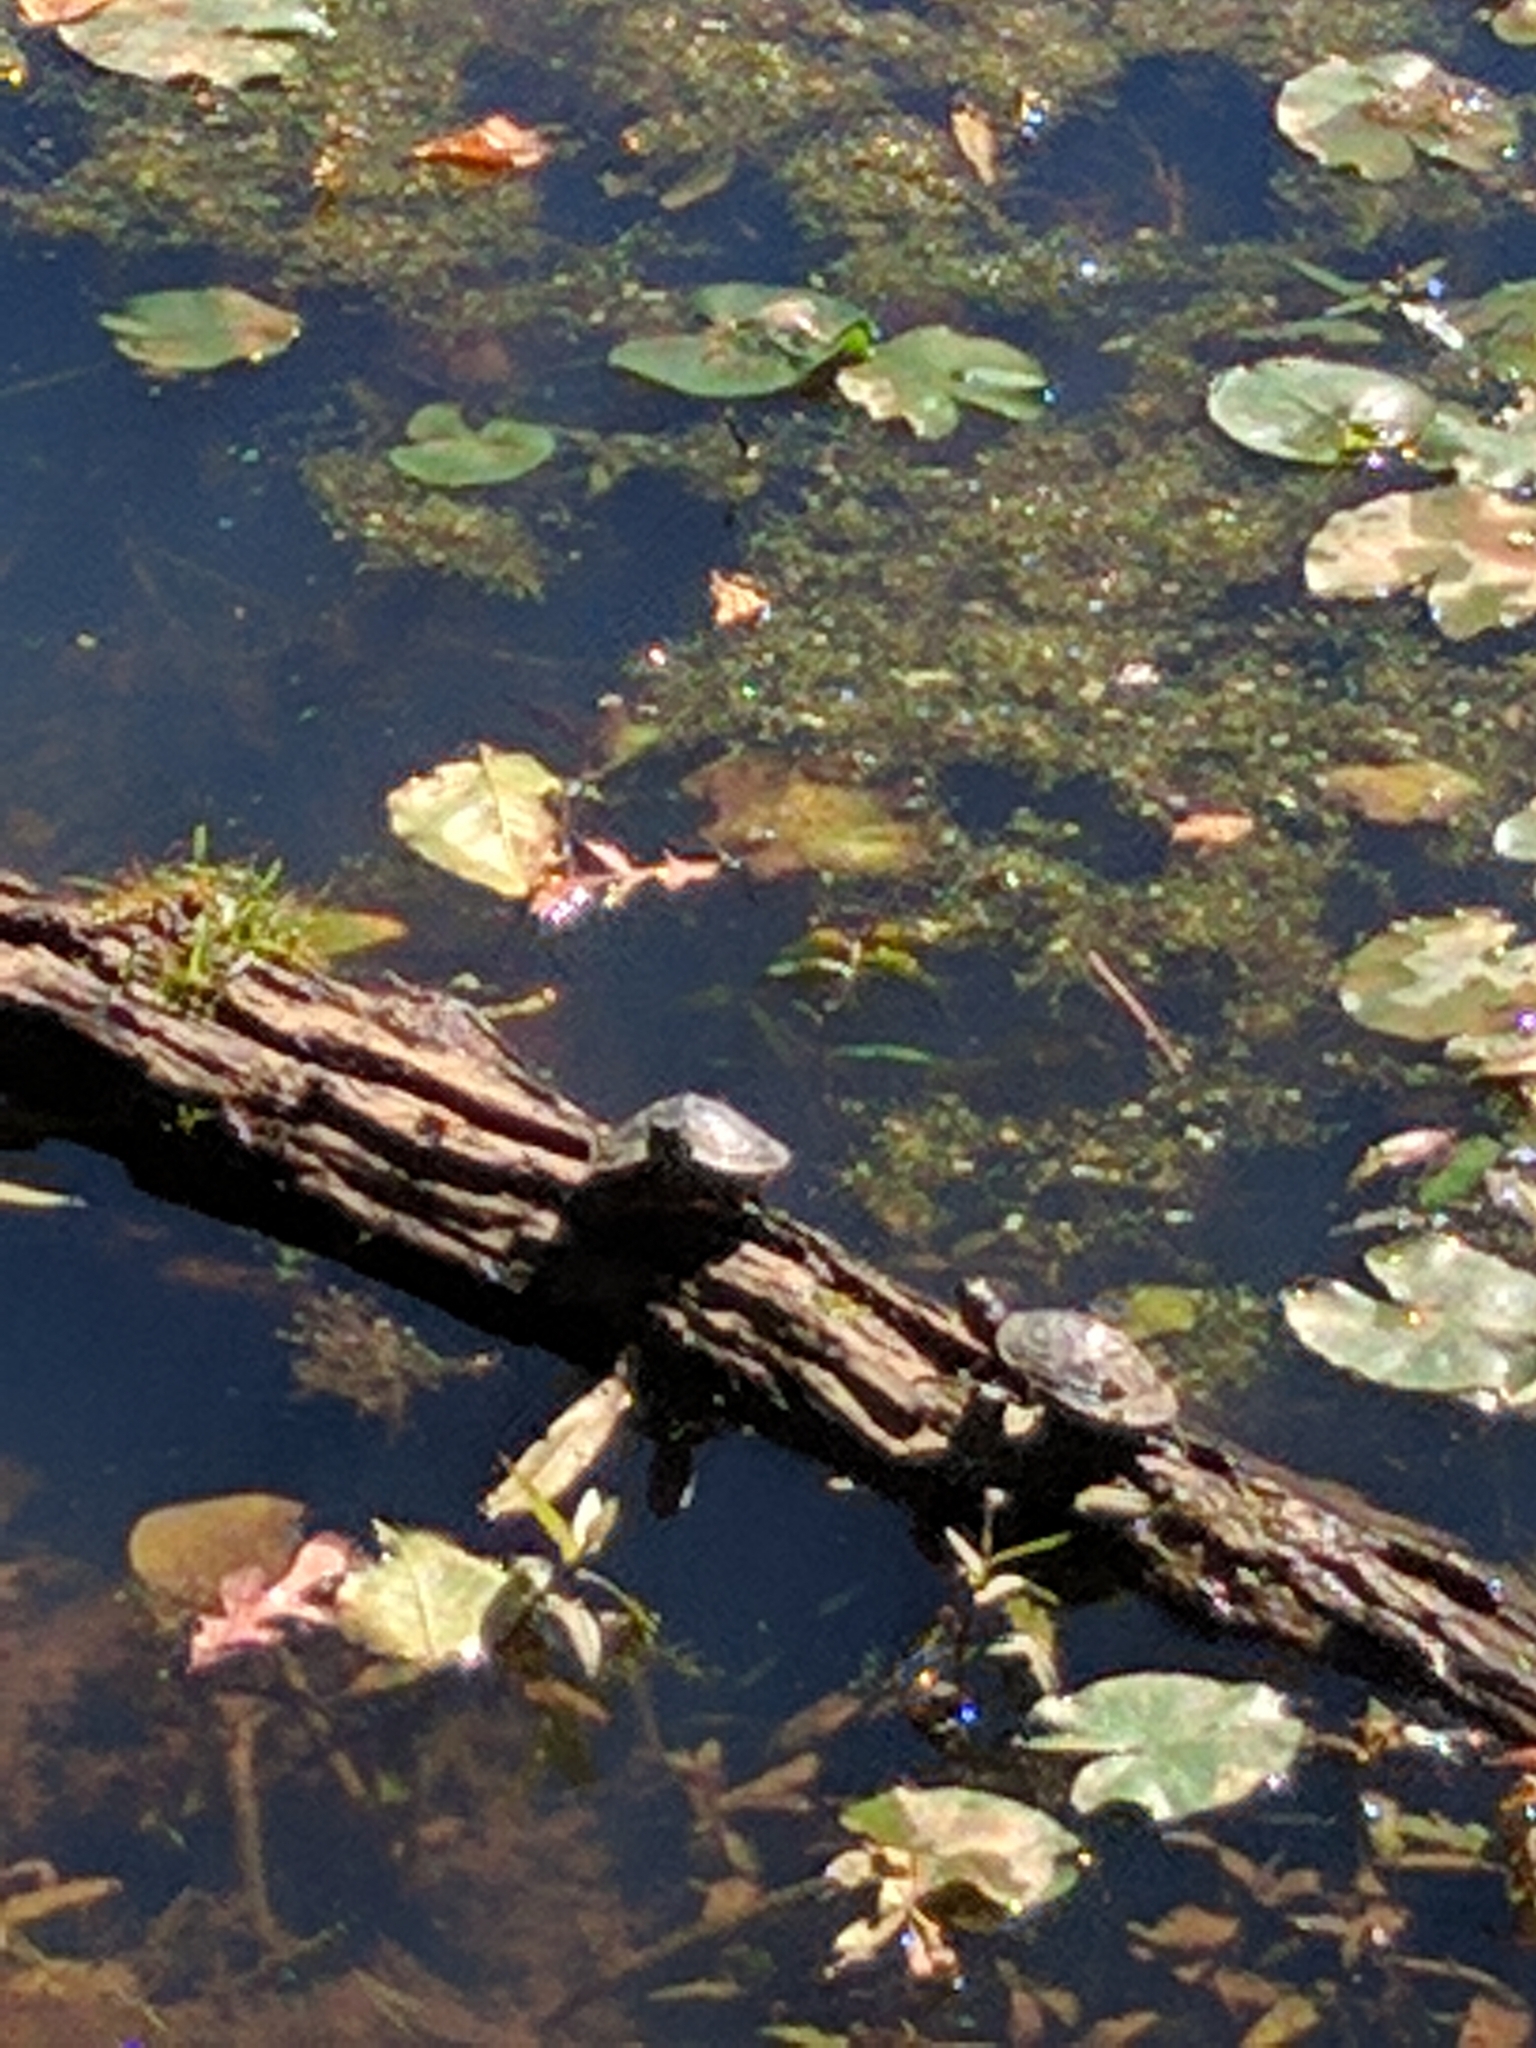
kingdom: Animalia
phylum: Chordata
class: Testudines
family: Emydidae
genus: Trachemys
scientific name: Trachemys scripta
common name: Slider
